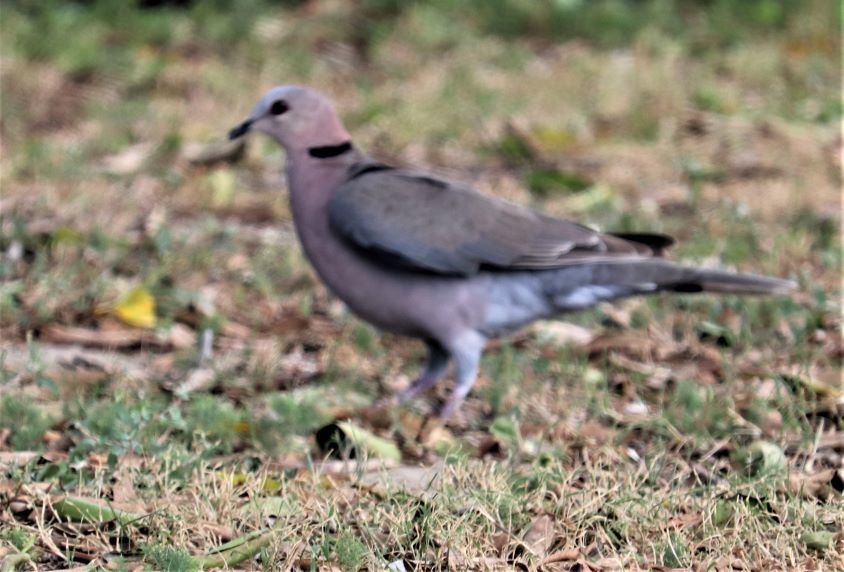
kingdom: Animalia
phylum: Chordata
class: Aves
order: Columbiformes
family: Columbidae
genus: Streptopelia
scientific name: Streptopelia semitorquata
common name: Red-eyed dove
